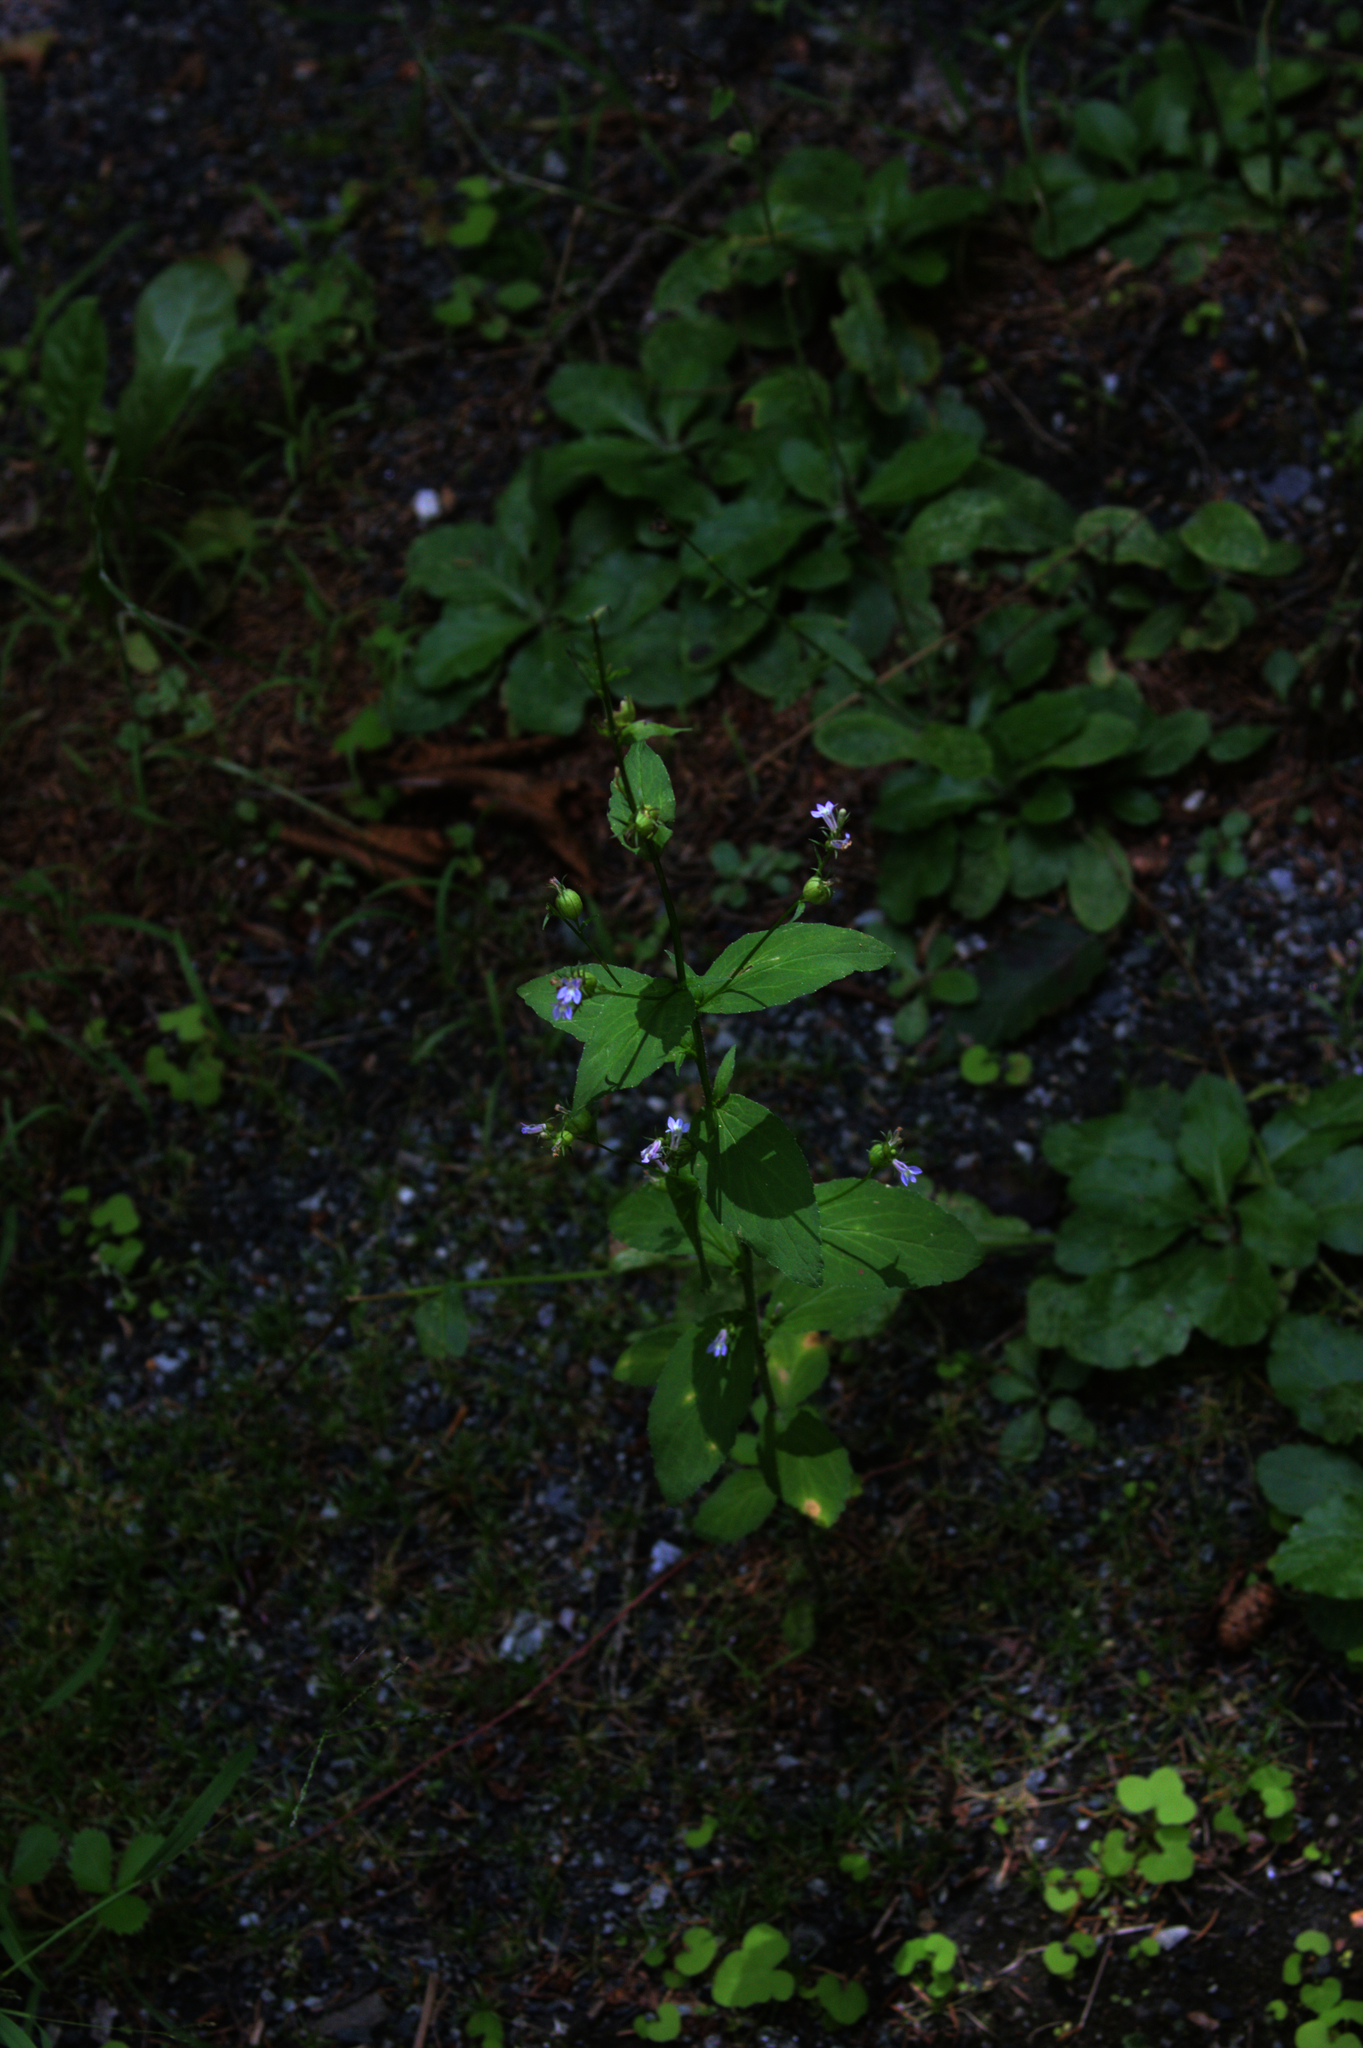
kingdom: Plantae
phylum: Tracheophyta
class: Magnoliopsida
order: Asterales
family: Campanulaceae
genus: Lobelia
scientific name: Lobelia inflata
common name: Indian tobacco
